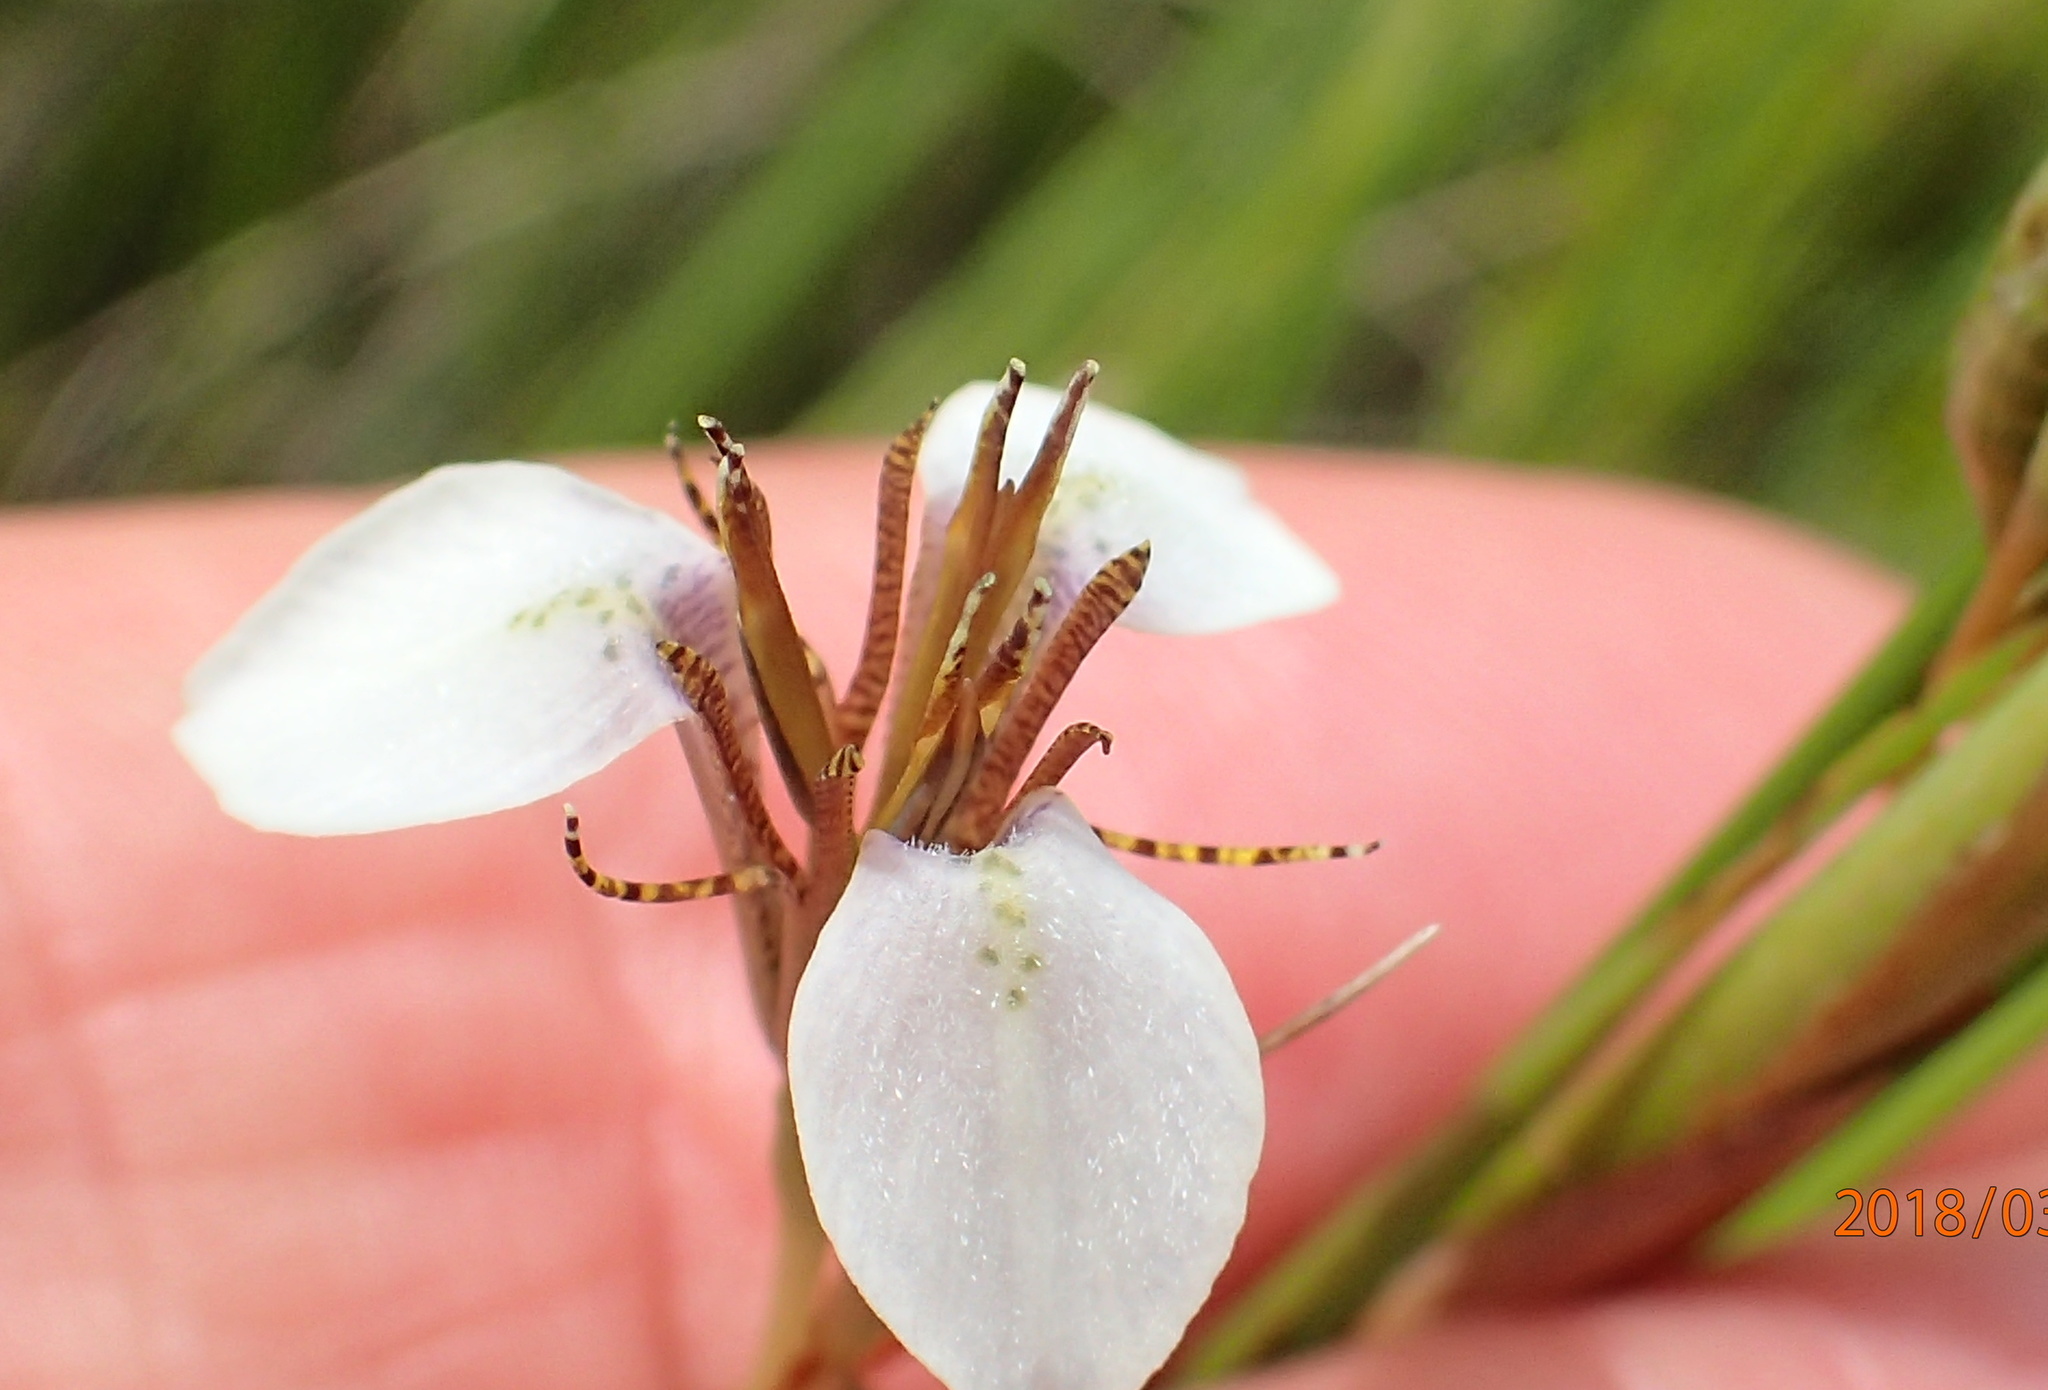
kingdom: Plantae
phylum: Tracheophyta
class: Liliopsida
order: Asparagales
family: Iridaceae
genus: Moraea
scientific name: Moraea brevistyla
